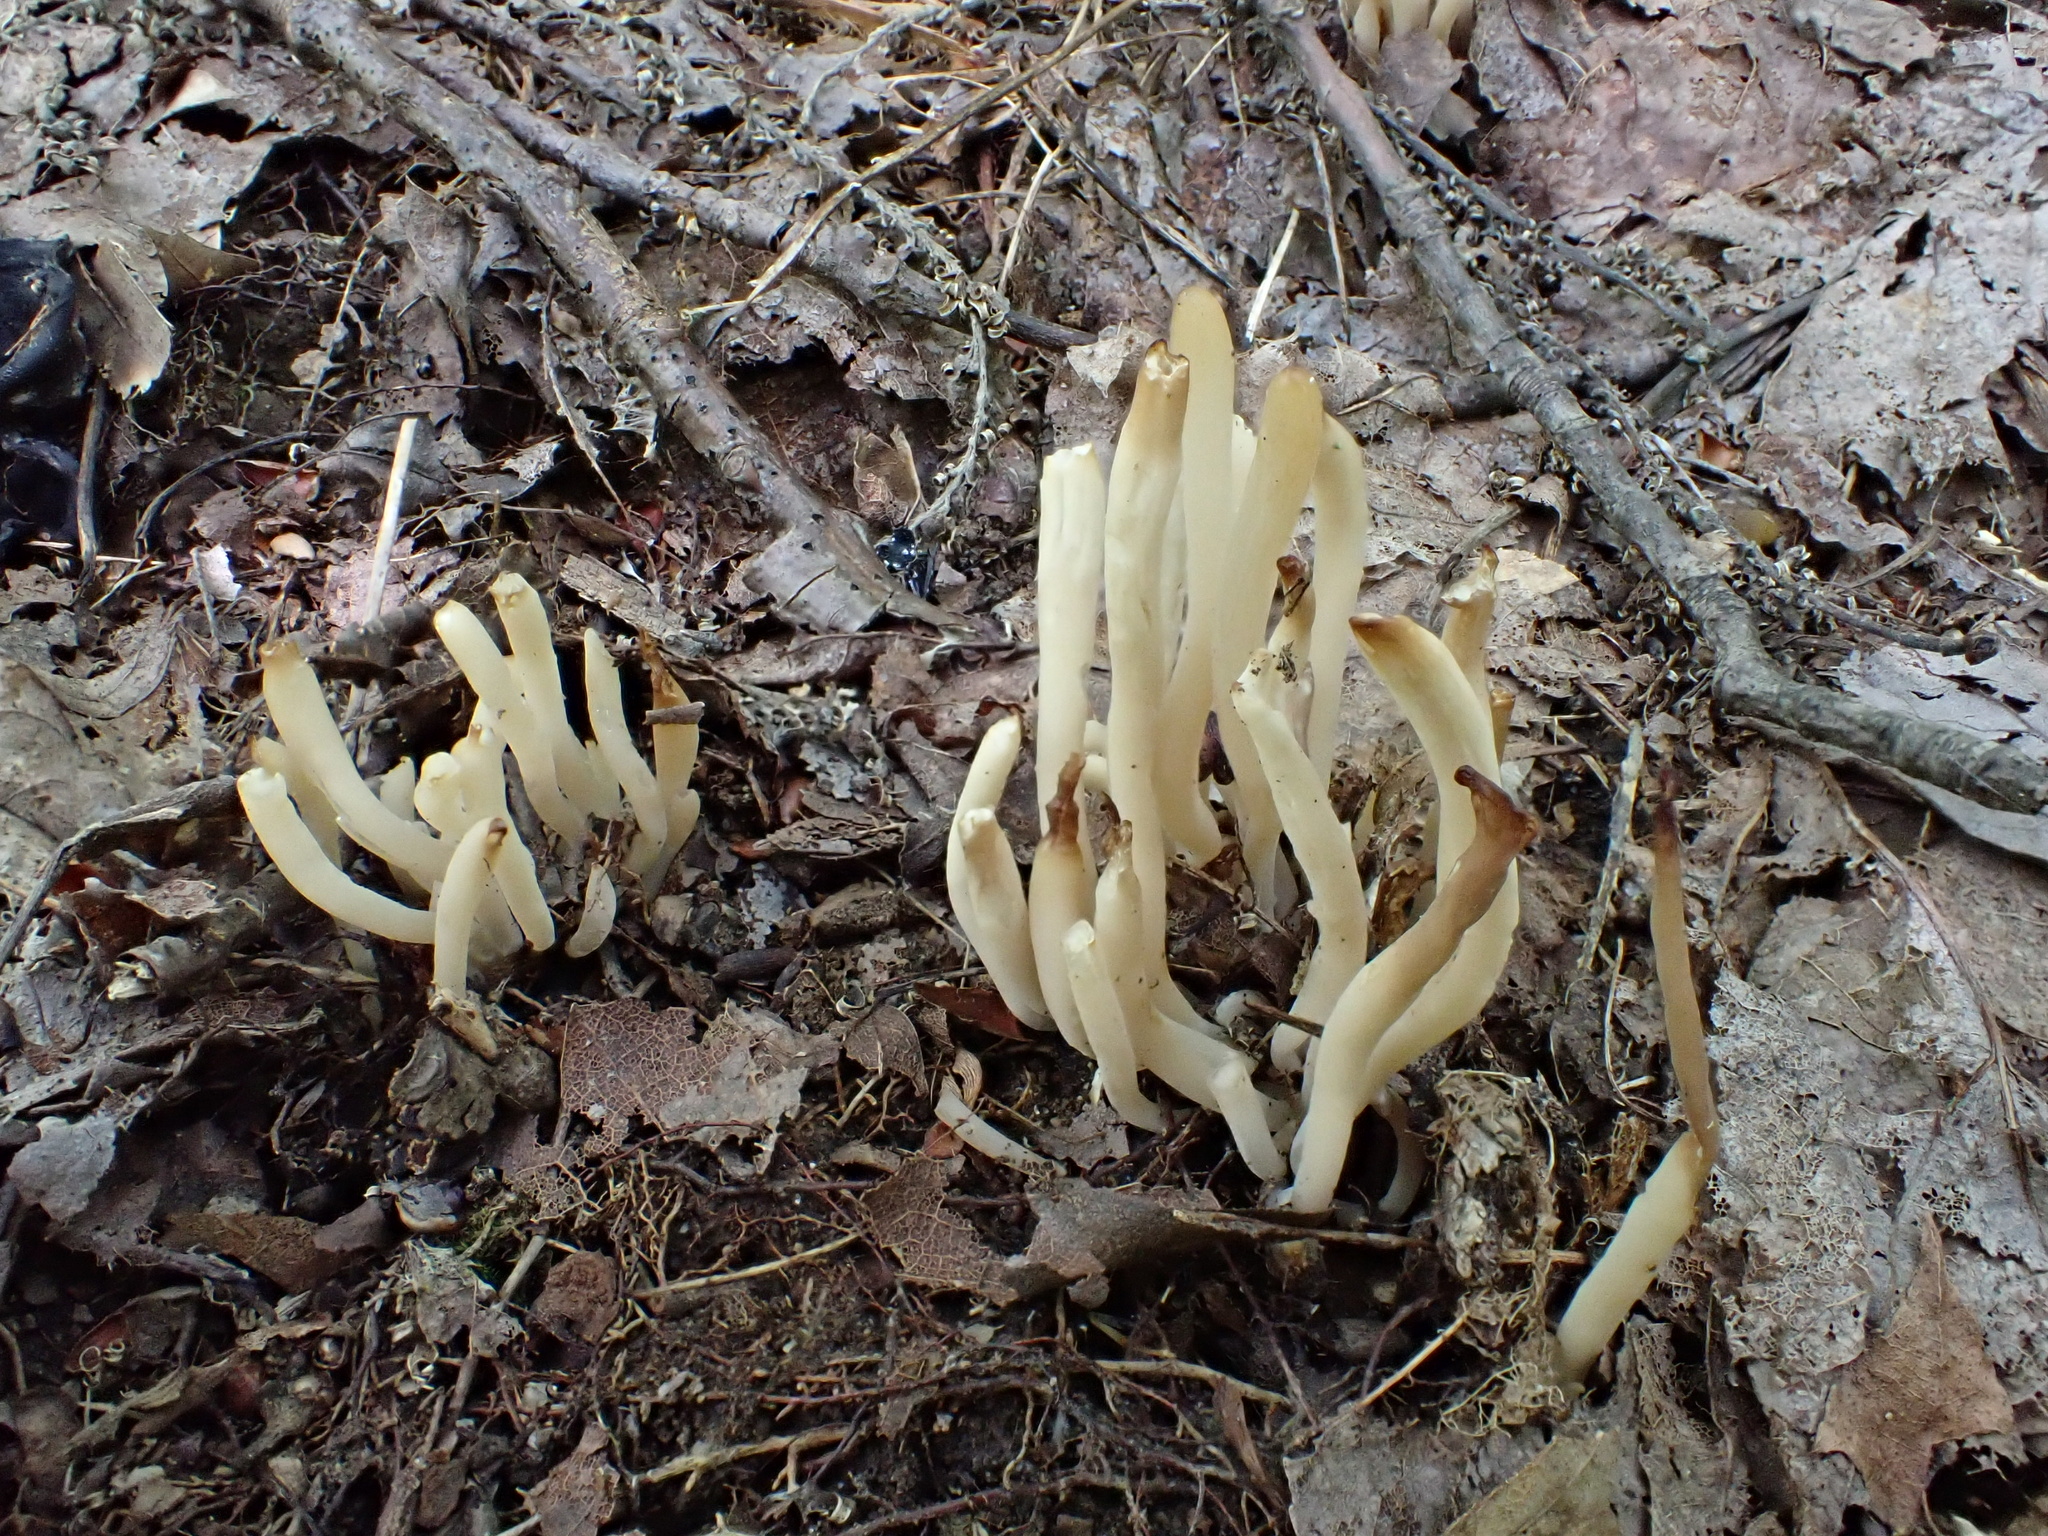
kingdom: Fungi
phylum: Basidiomycota
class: Agaricomycetes
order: Agaricales
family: Clavariaceae
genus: Clavaria
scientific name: Clavaria fumosa
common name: Smoky spindles
